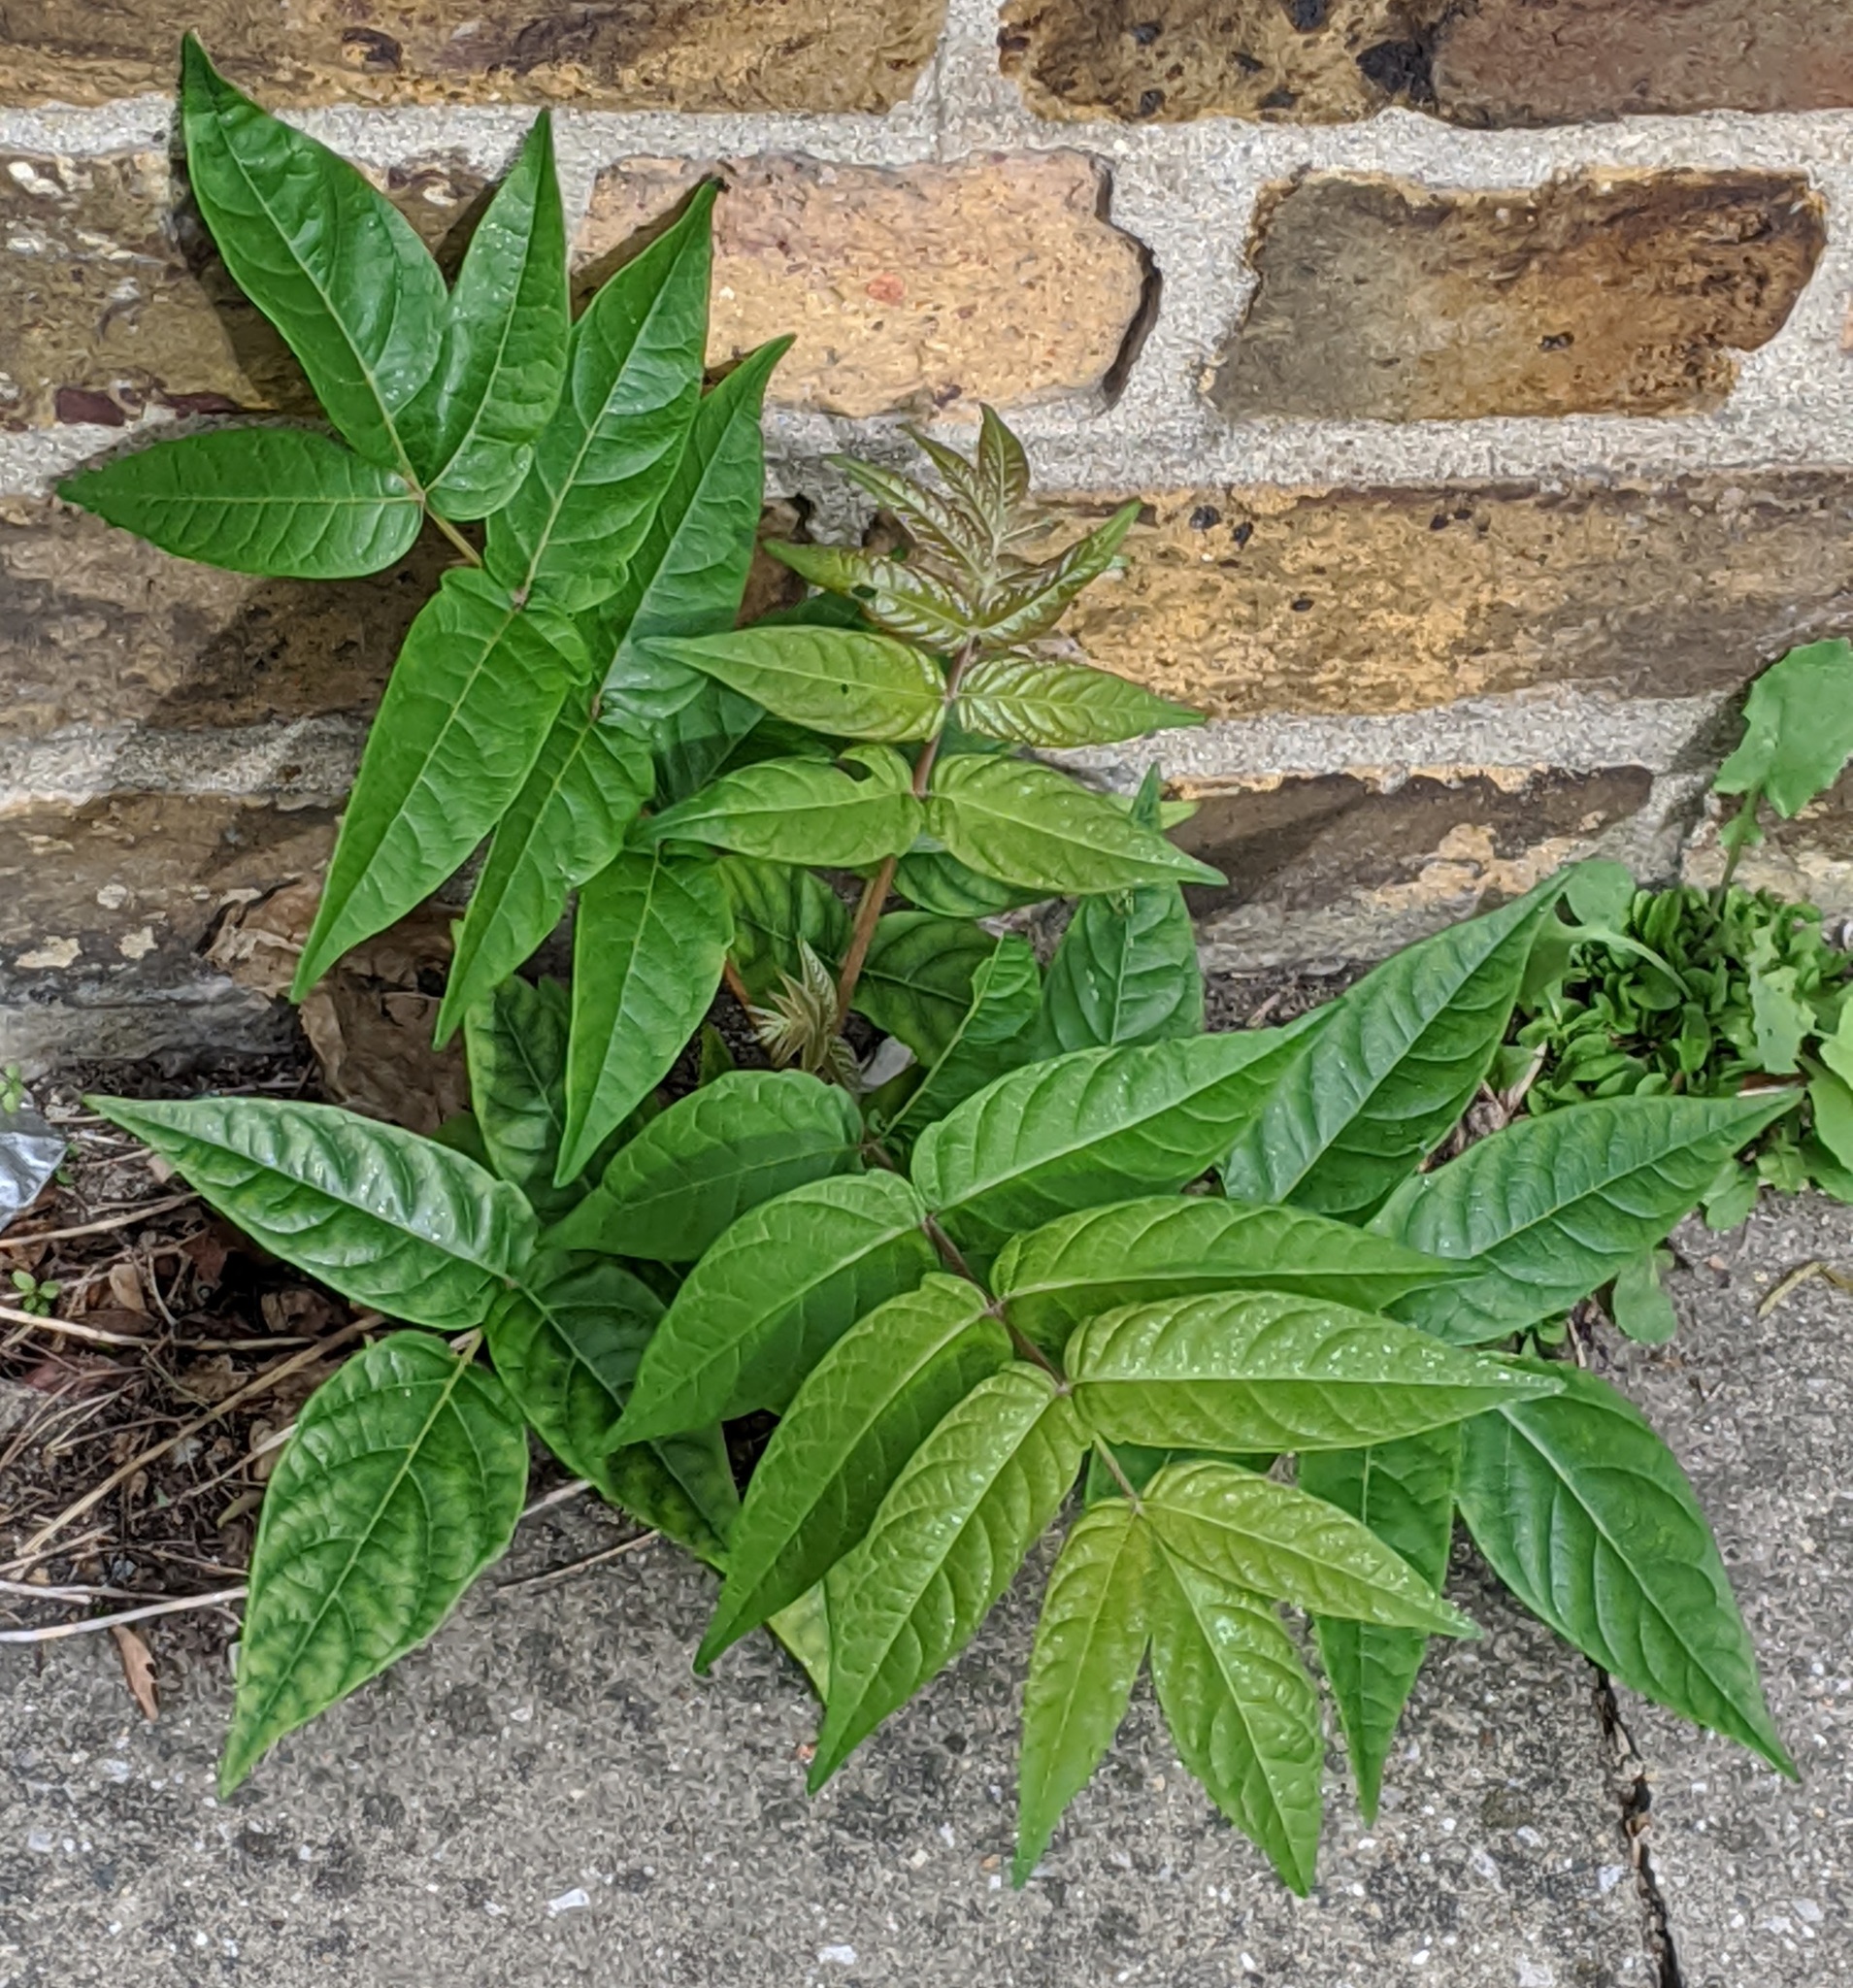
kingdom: Plantae
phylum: Tracheophyta
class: Magnoliopsida
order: Sapindales
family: Simaroubaceae
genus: Ailanthus
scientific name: Ailanthus altissima
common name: Tree-of-heaven
